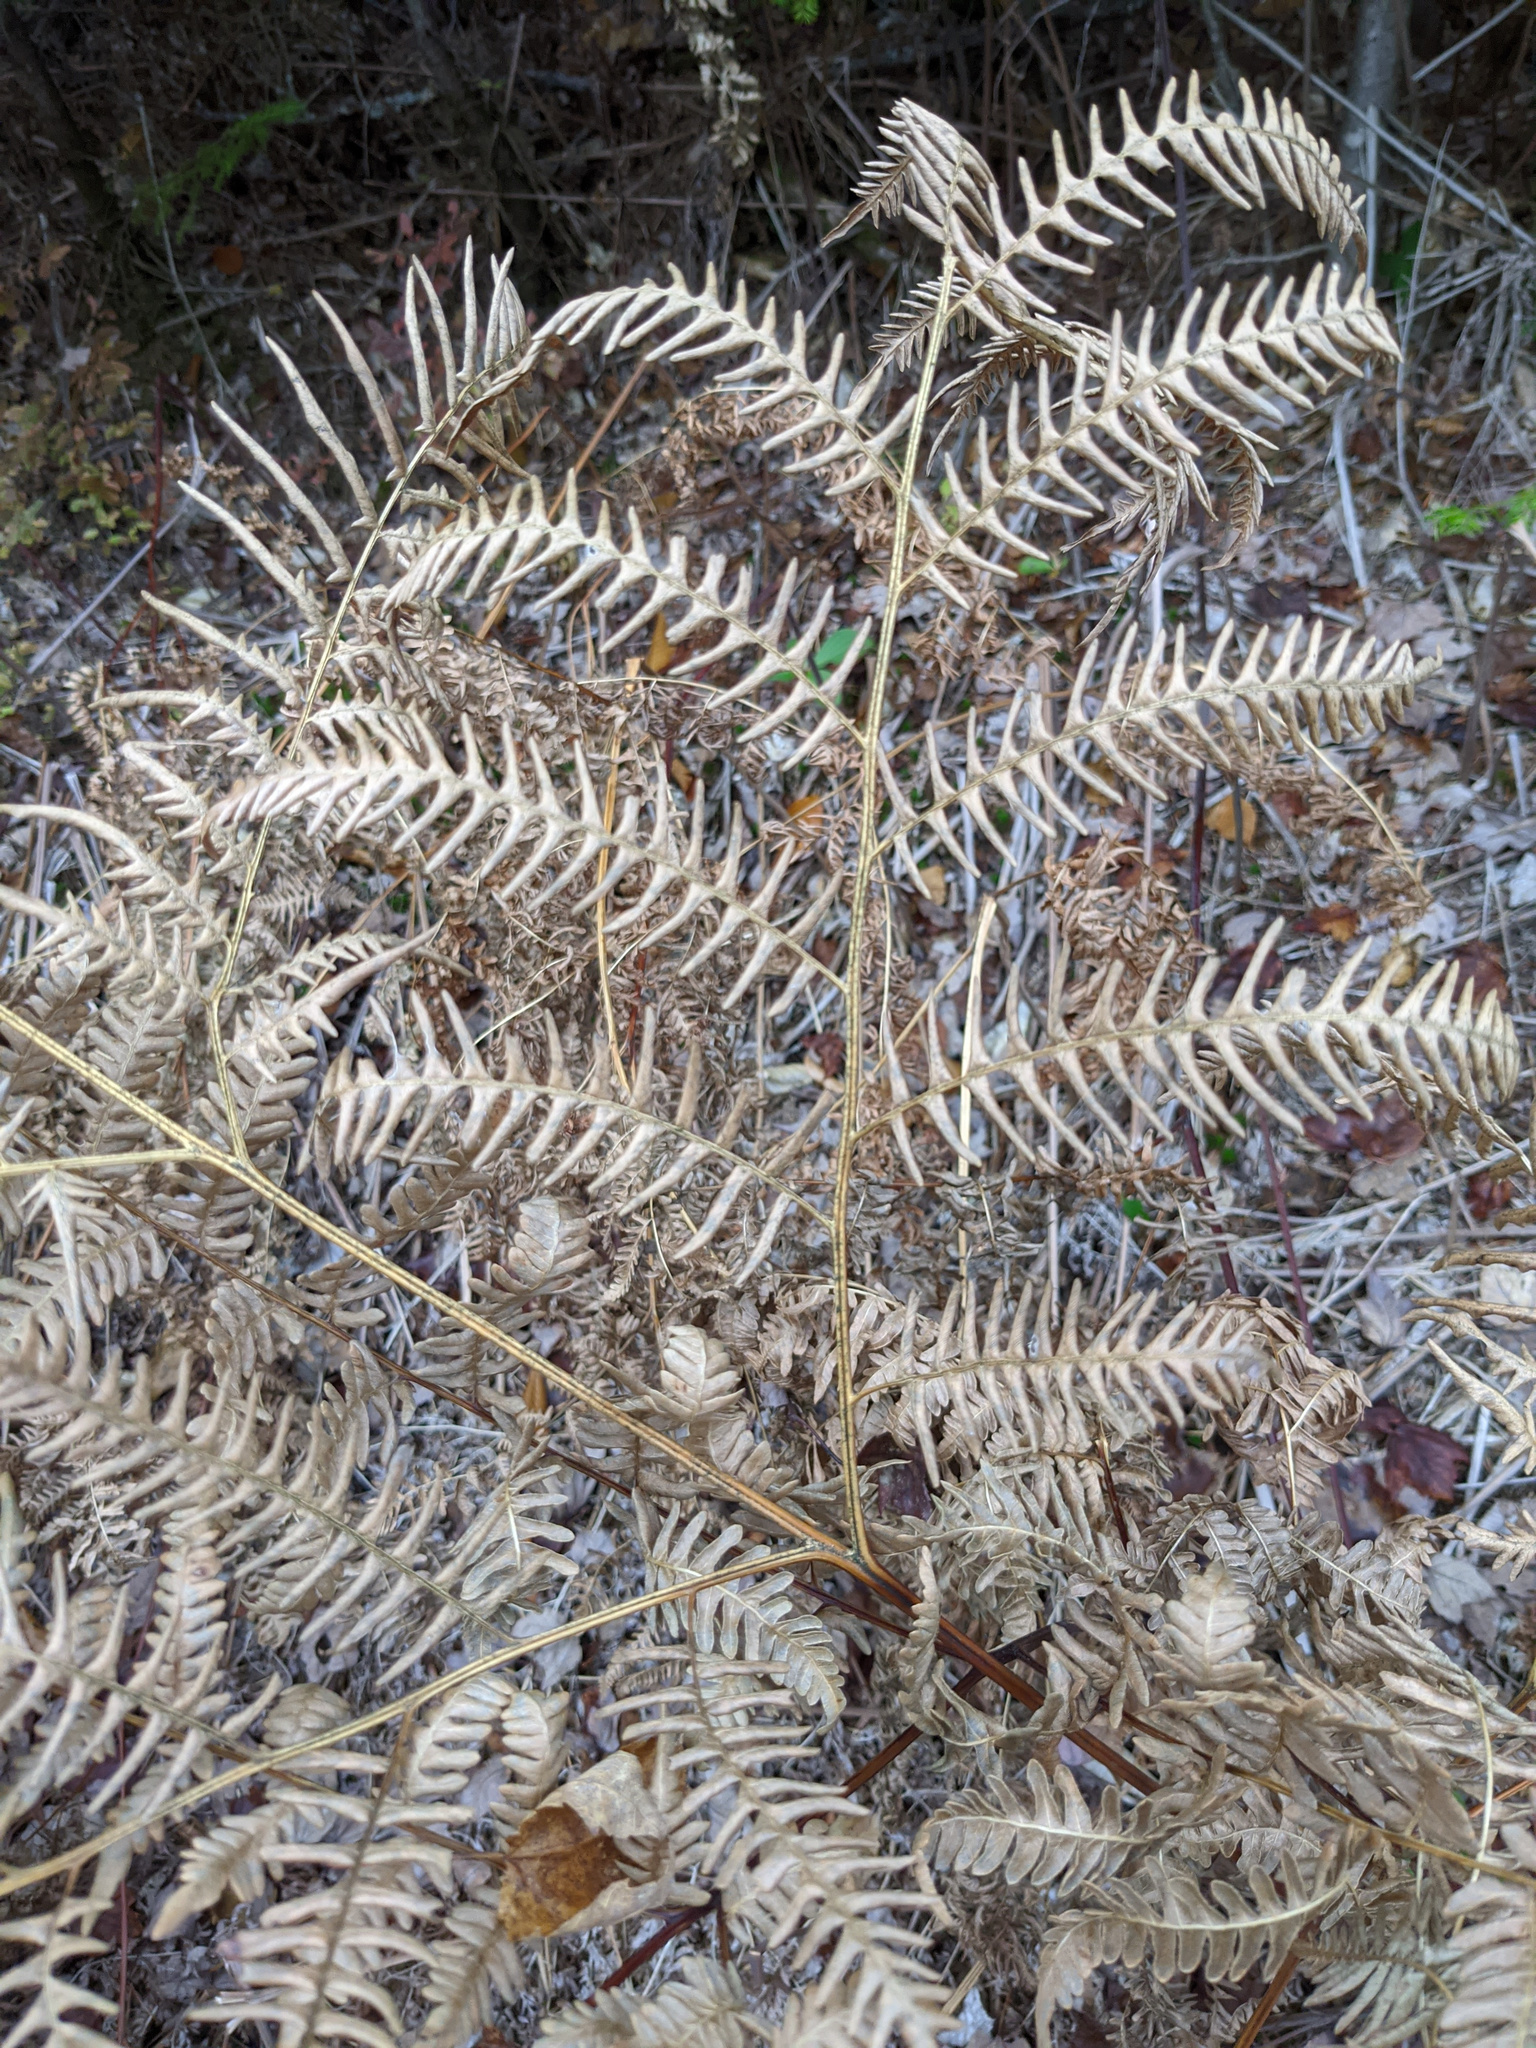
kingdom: Plantae
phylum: Tracheophyta
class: Polypodiopsida
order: Polypodiales
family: Dennstaedtiaceae
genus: Pteridium
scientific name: Pteridium aquilinum
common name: Bracken
